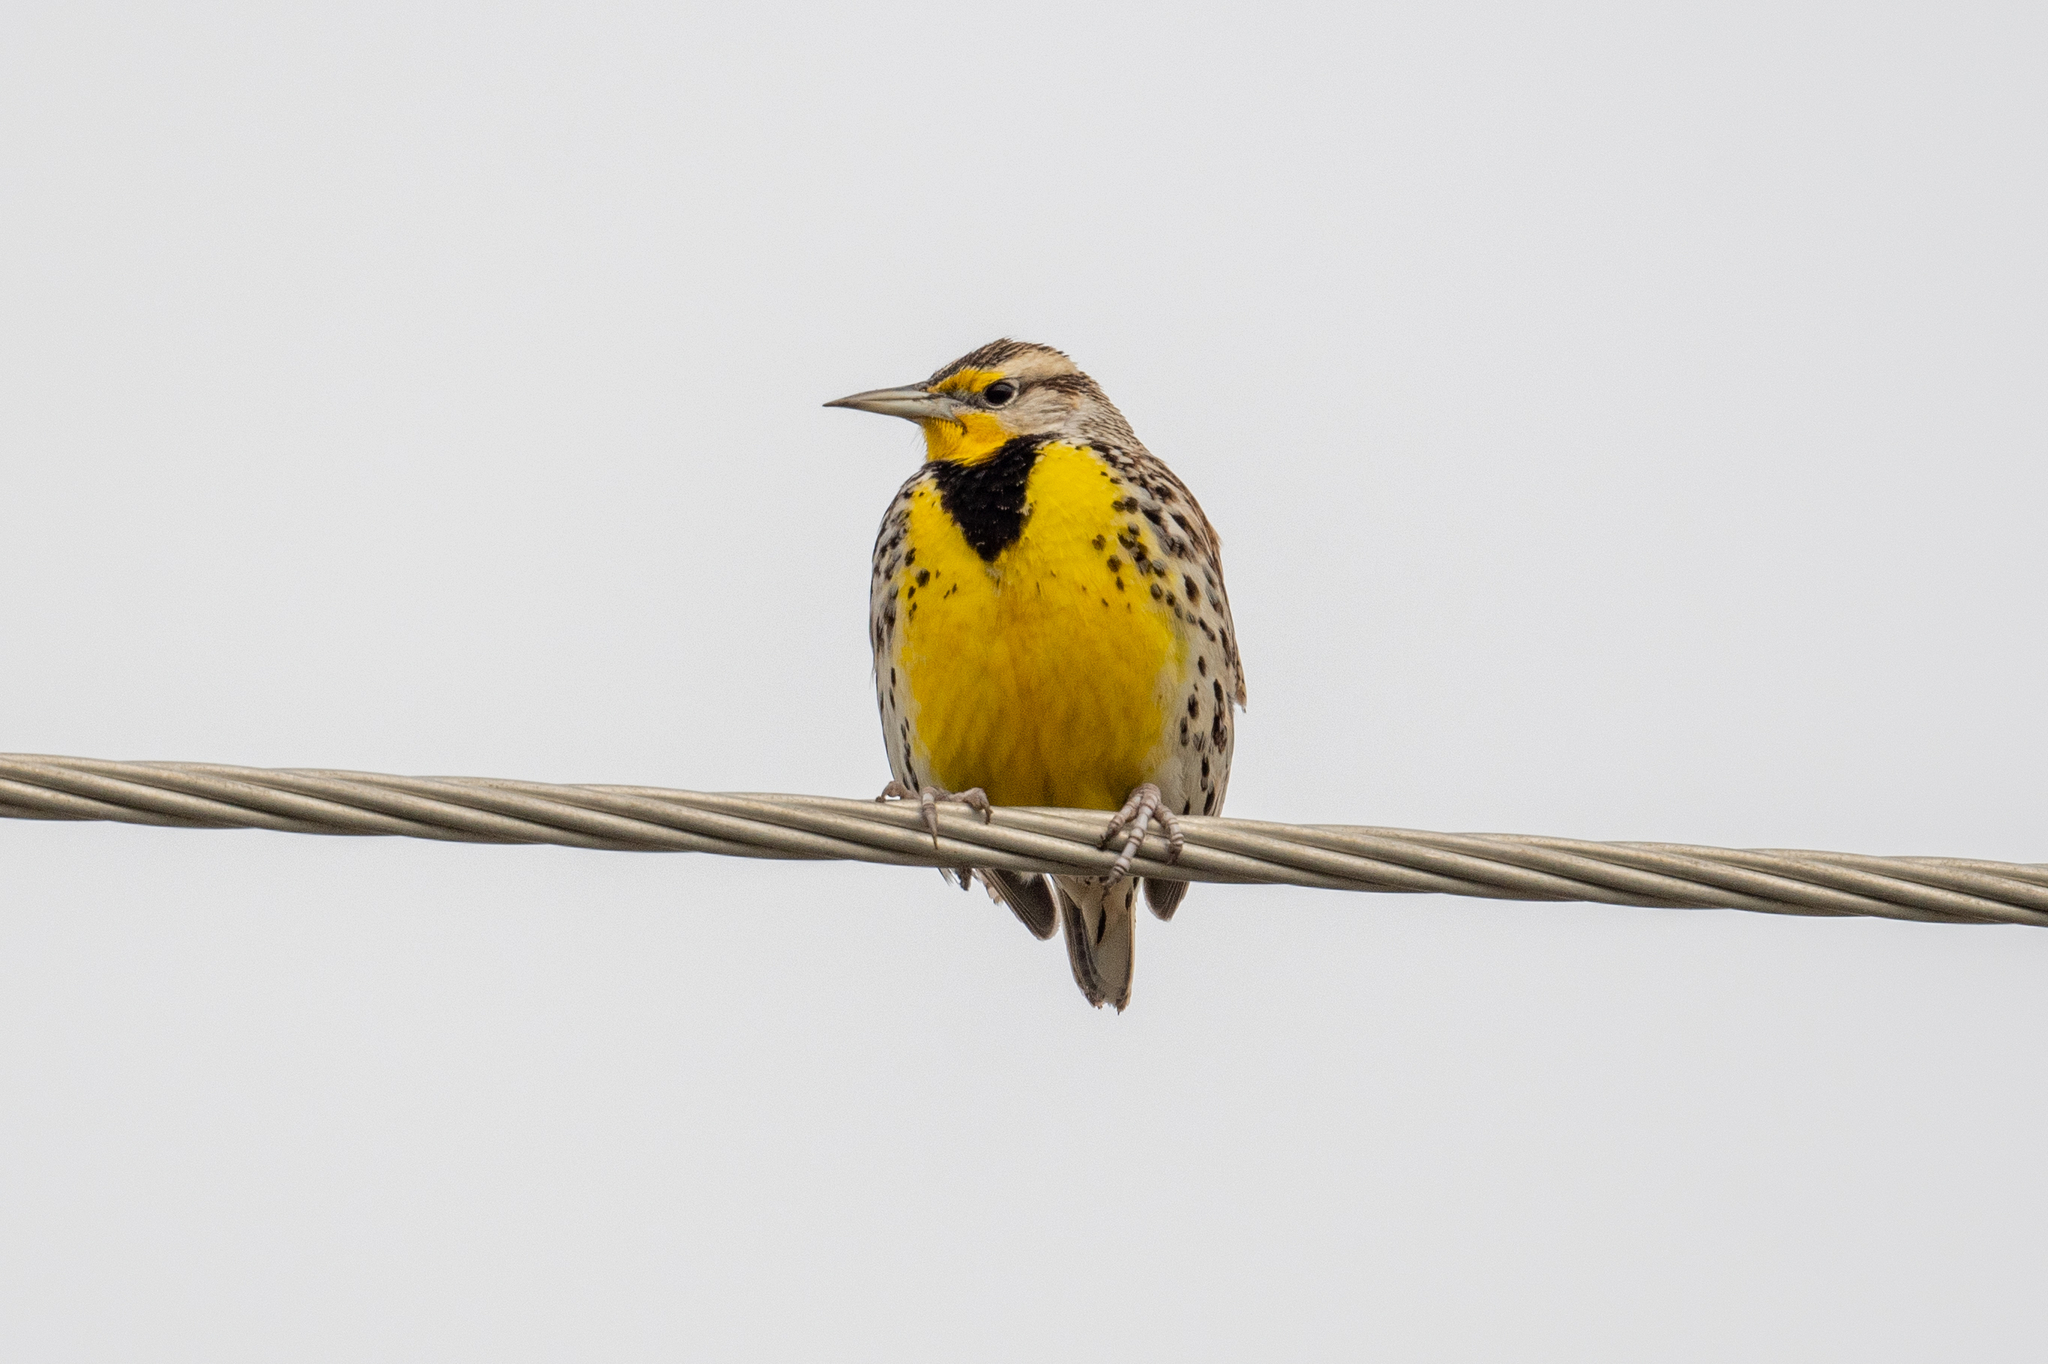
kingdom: Animalia
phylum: Chordata
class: Aves
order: Passeriformes
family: Icteridae
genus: Sturnella
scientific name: Sturnella neglecta
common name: Western meadowlark
